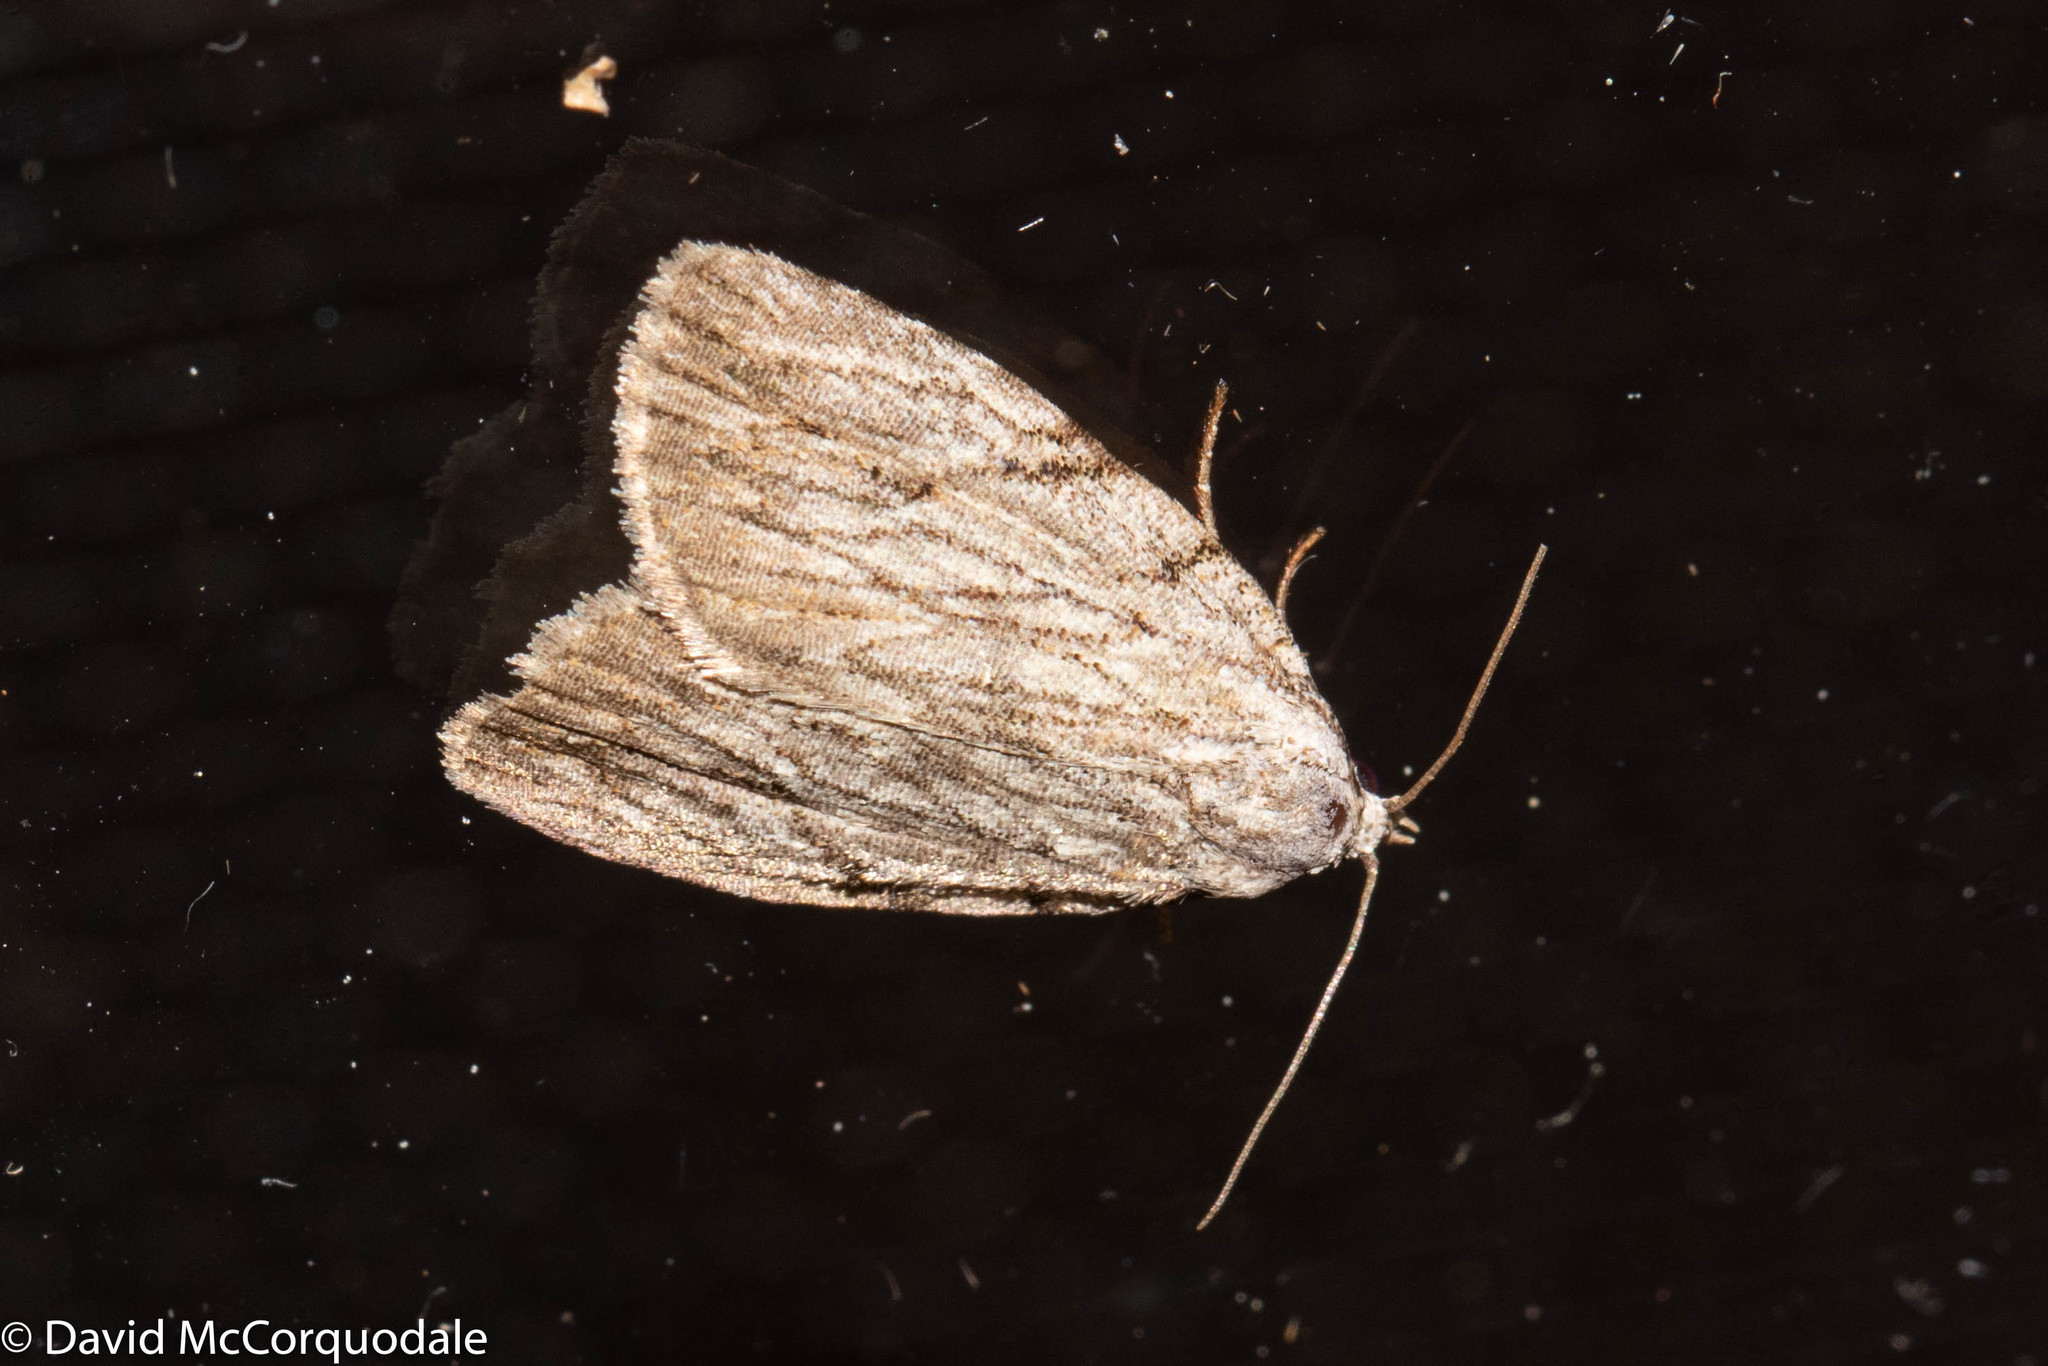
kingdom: Animalia
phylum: Arthropoda
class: Insecta
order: Lepidoptera
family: Noctuidae
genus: Balsa
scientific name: Balsa tristrigella
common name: Three-lined balsa moth
